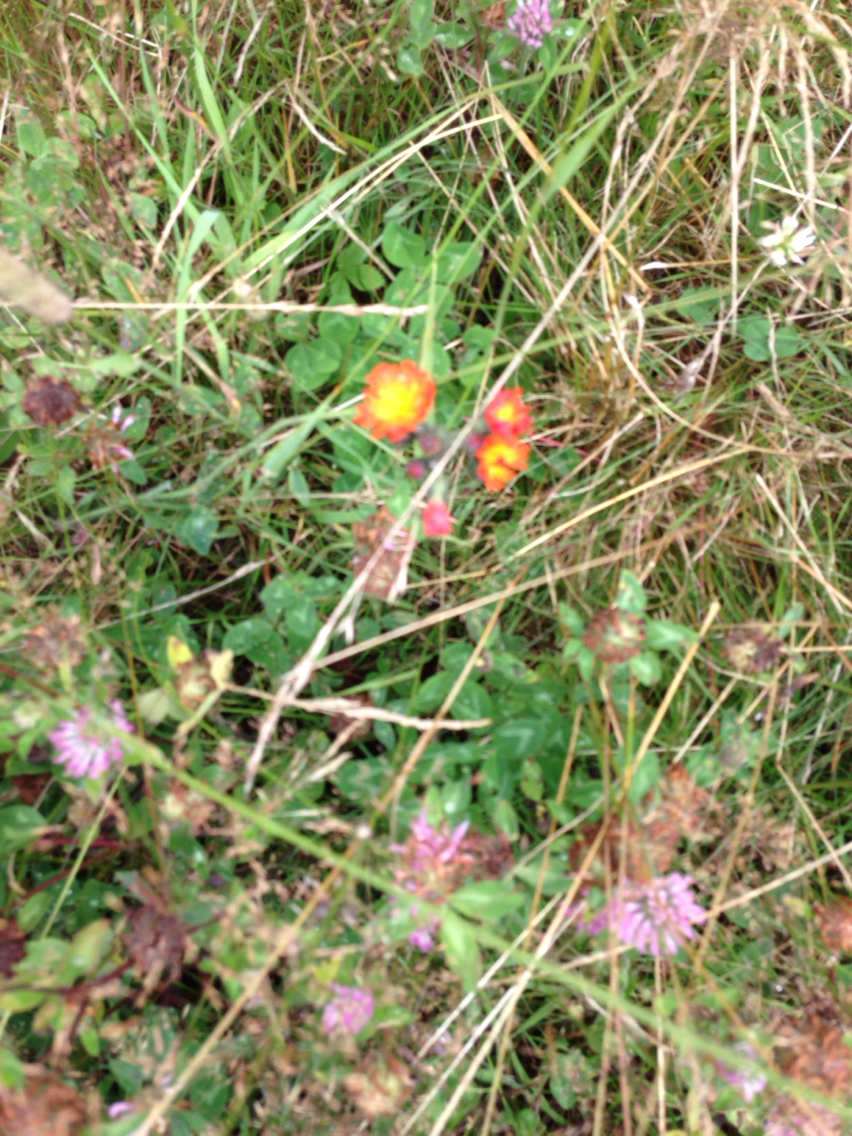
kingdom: Plantae
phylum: Tracheophyta
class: Magnoliopsida
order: Asterales
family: Asteraceae
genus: Pilosella
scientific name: Pilosella aurantiaca
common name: Fox-and-cubs
